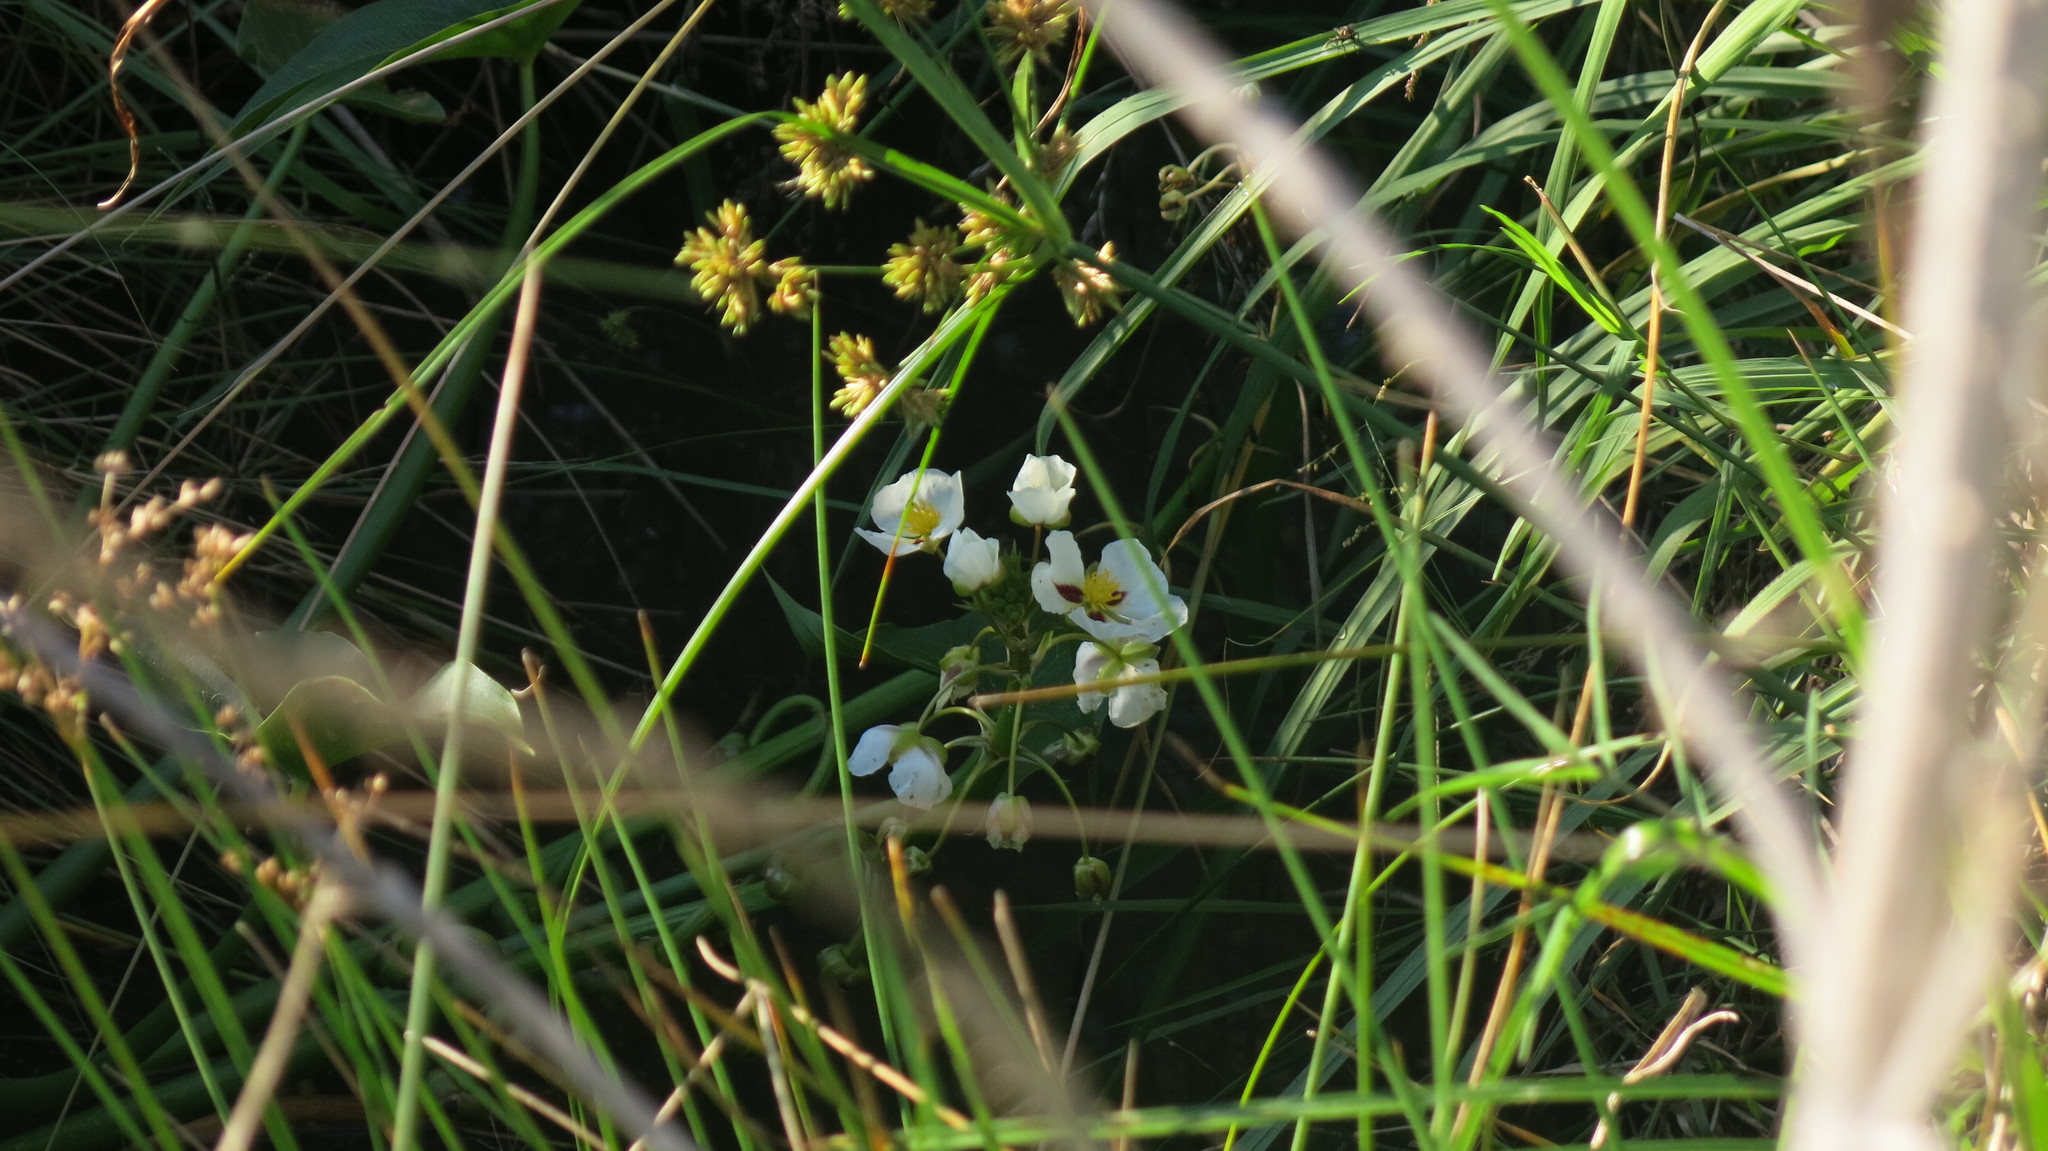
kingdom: Plantae
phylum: Tracheophyta
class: Liliopsida
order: Alismatales
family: Alismataceae
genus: Sagittaria
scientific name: Sagittaria montevidensis
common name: Giant arrowhead
